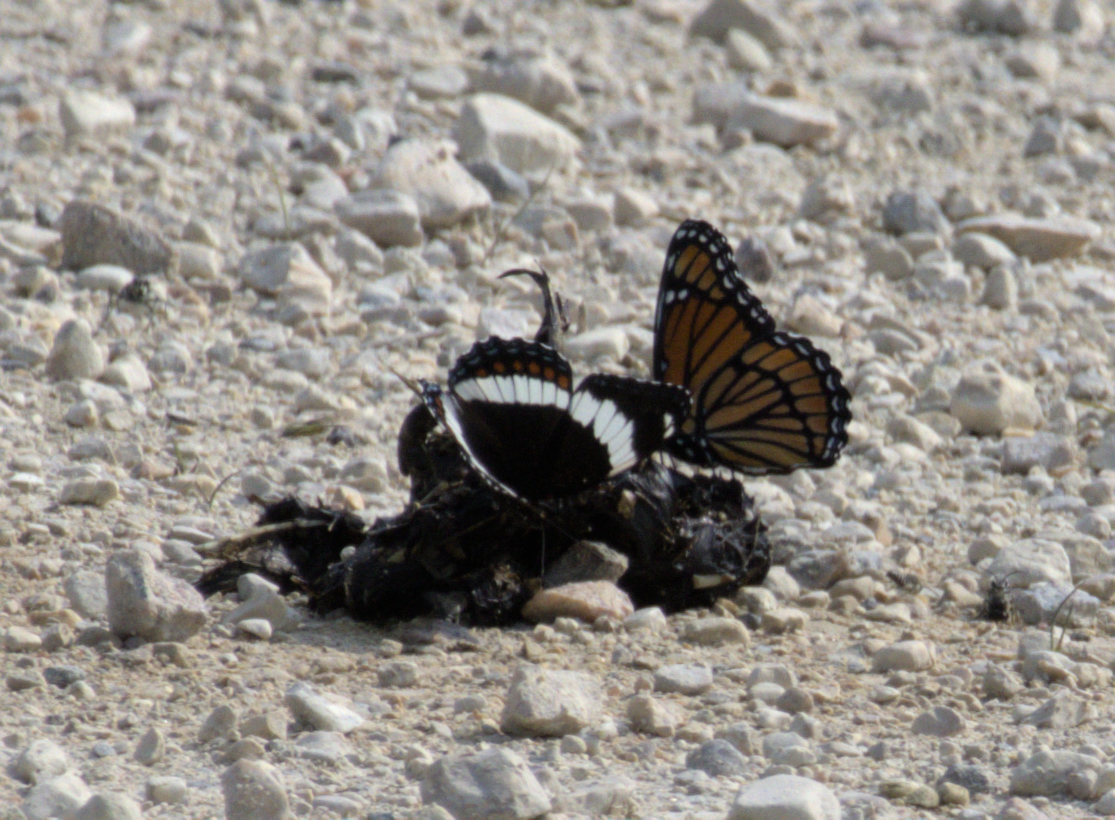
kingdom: Animalia
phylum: Arthropoda
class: Insecta
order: Lepidoptera
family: Nymphalidae
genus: Limenitis
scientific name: Limenitis archippus
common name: Viceroy
